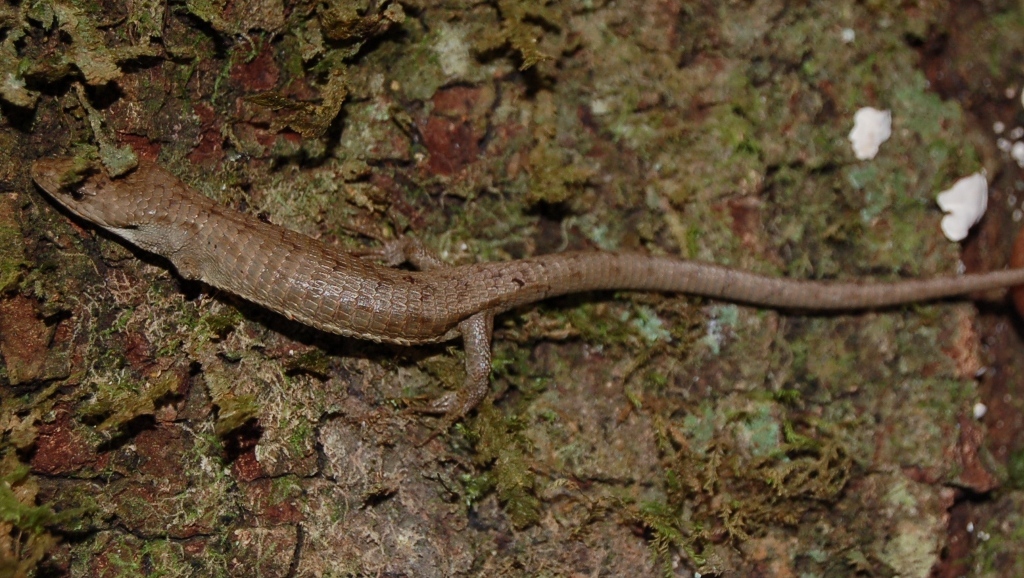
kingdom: Animalia
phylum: Chordata
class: Squamata
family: Anguidae
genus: Abronia
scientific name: Abronia lythrochila
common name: Red-lipped arboreal alligator lizard
